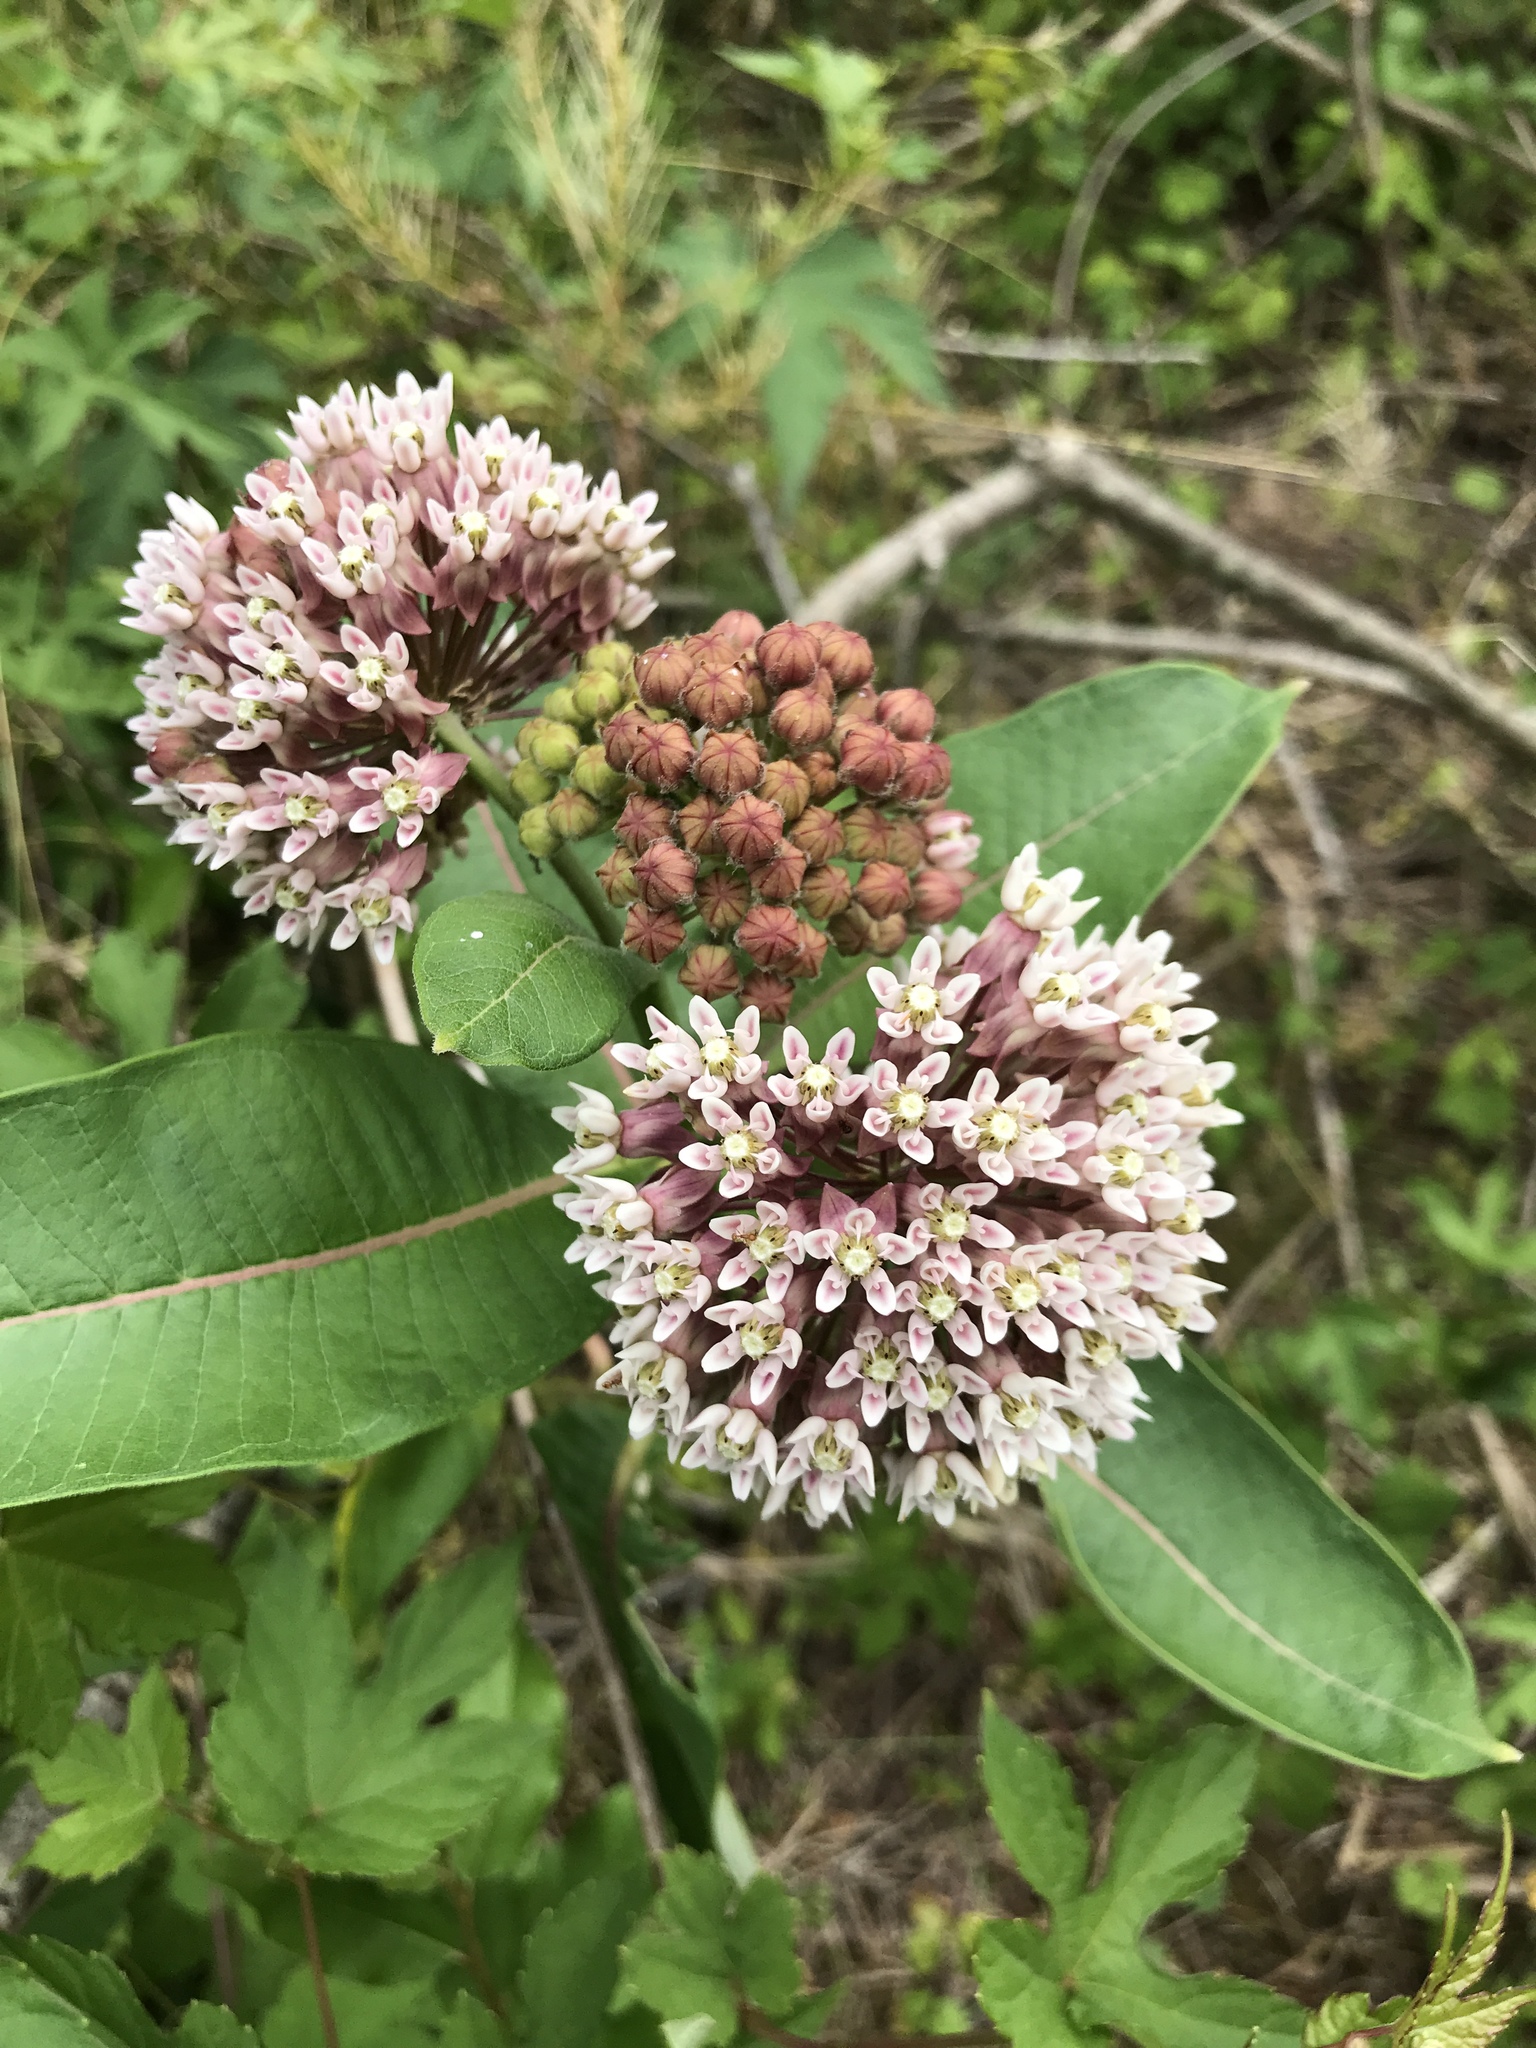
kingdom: Plantae
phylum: Tracheophyta
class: Magnoliopsida
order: Gentianales
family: Apocynaceae
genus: Asclepias
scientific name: Asclepias syriaca
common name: Common milkweed
